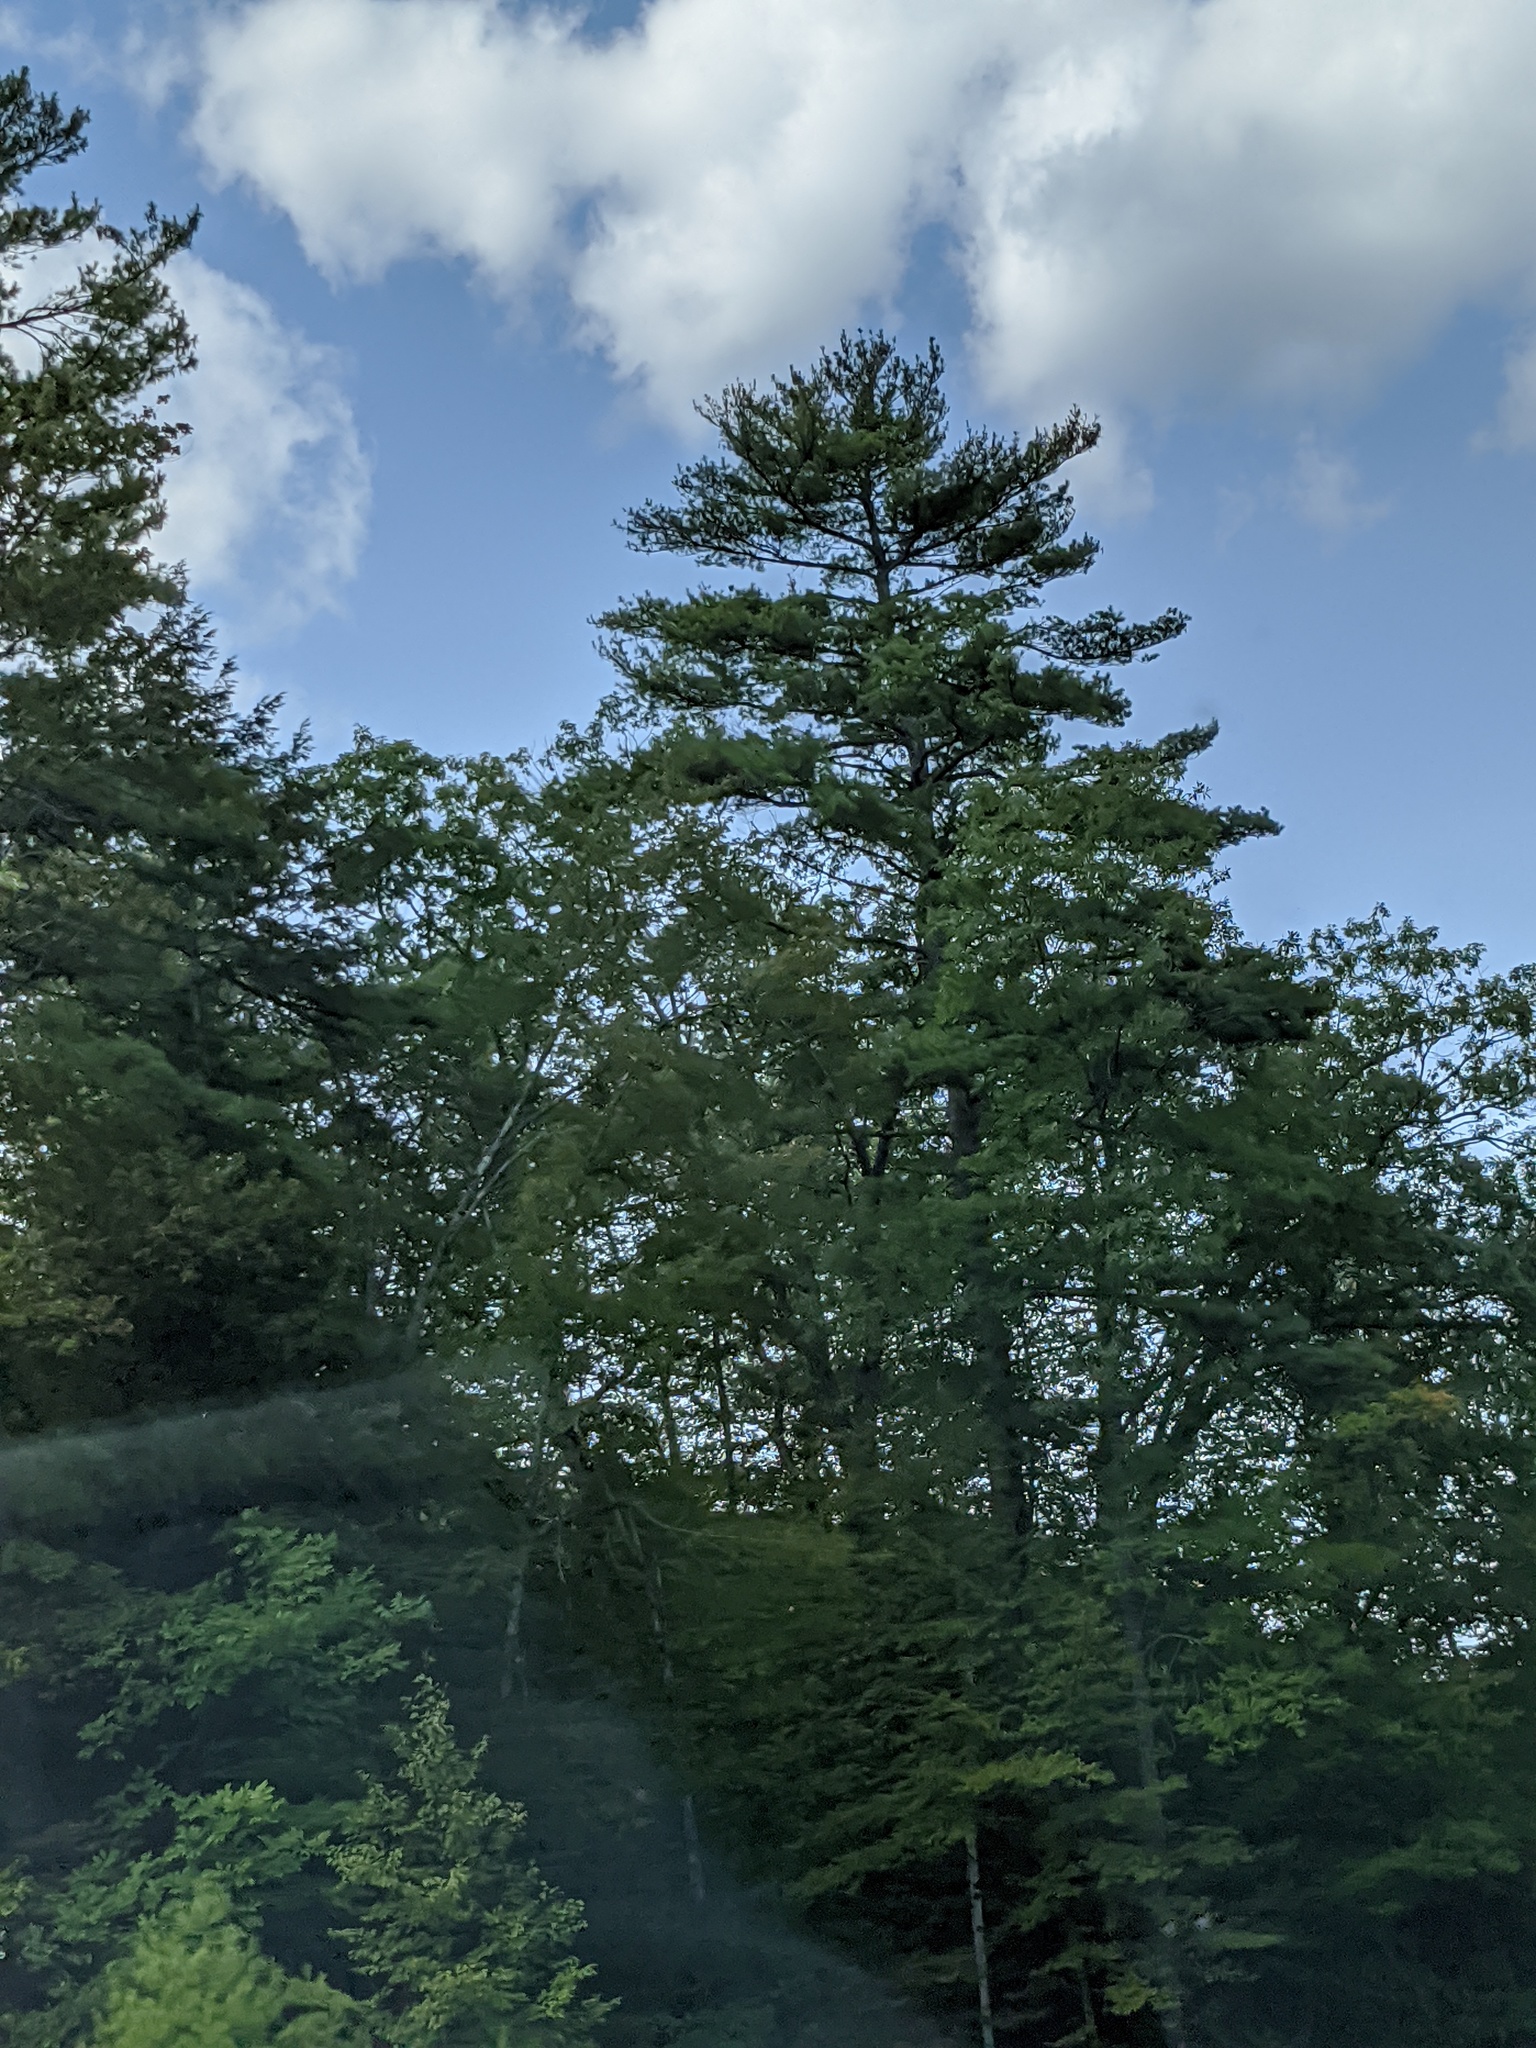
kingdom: Plantae
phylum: Tracheophyta
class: Pinopsida
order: Pinales
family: Pinaceae
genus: Pinus
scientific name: Pinus strobus
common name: Weymouth pine
